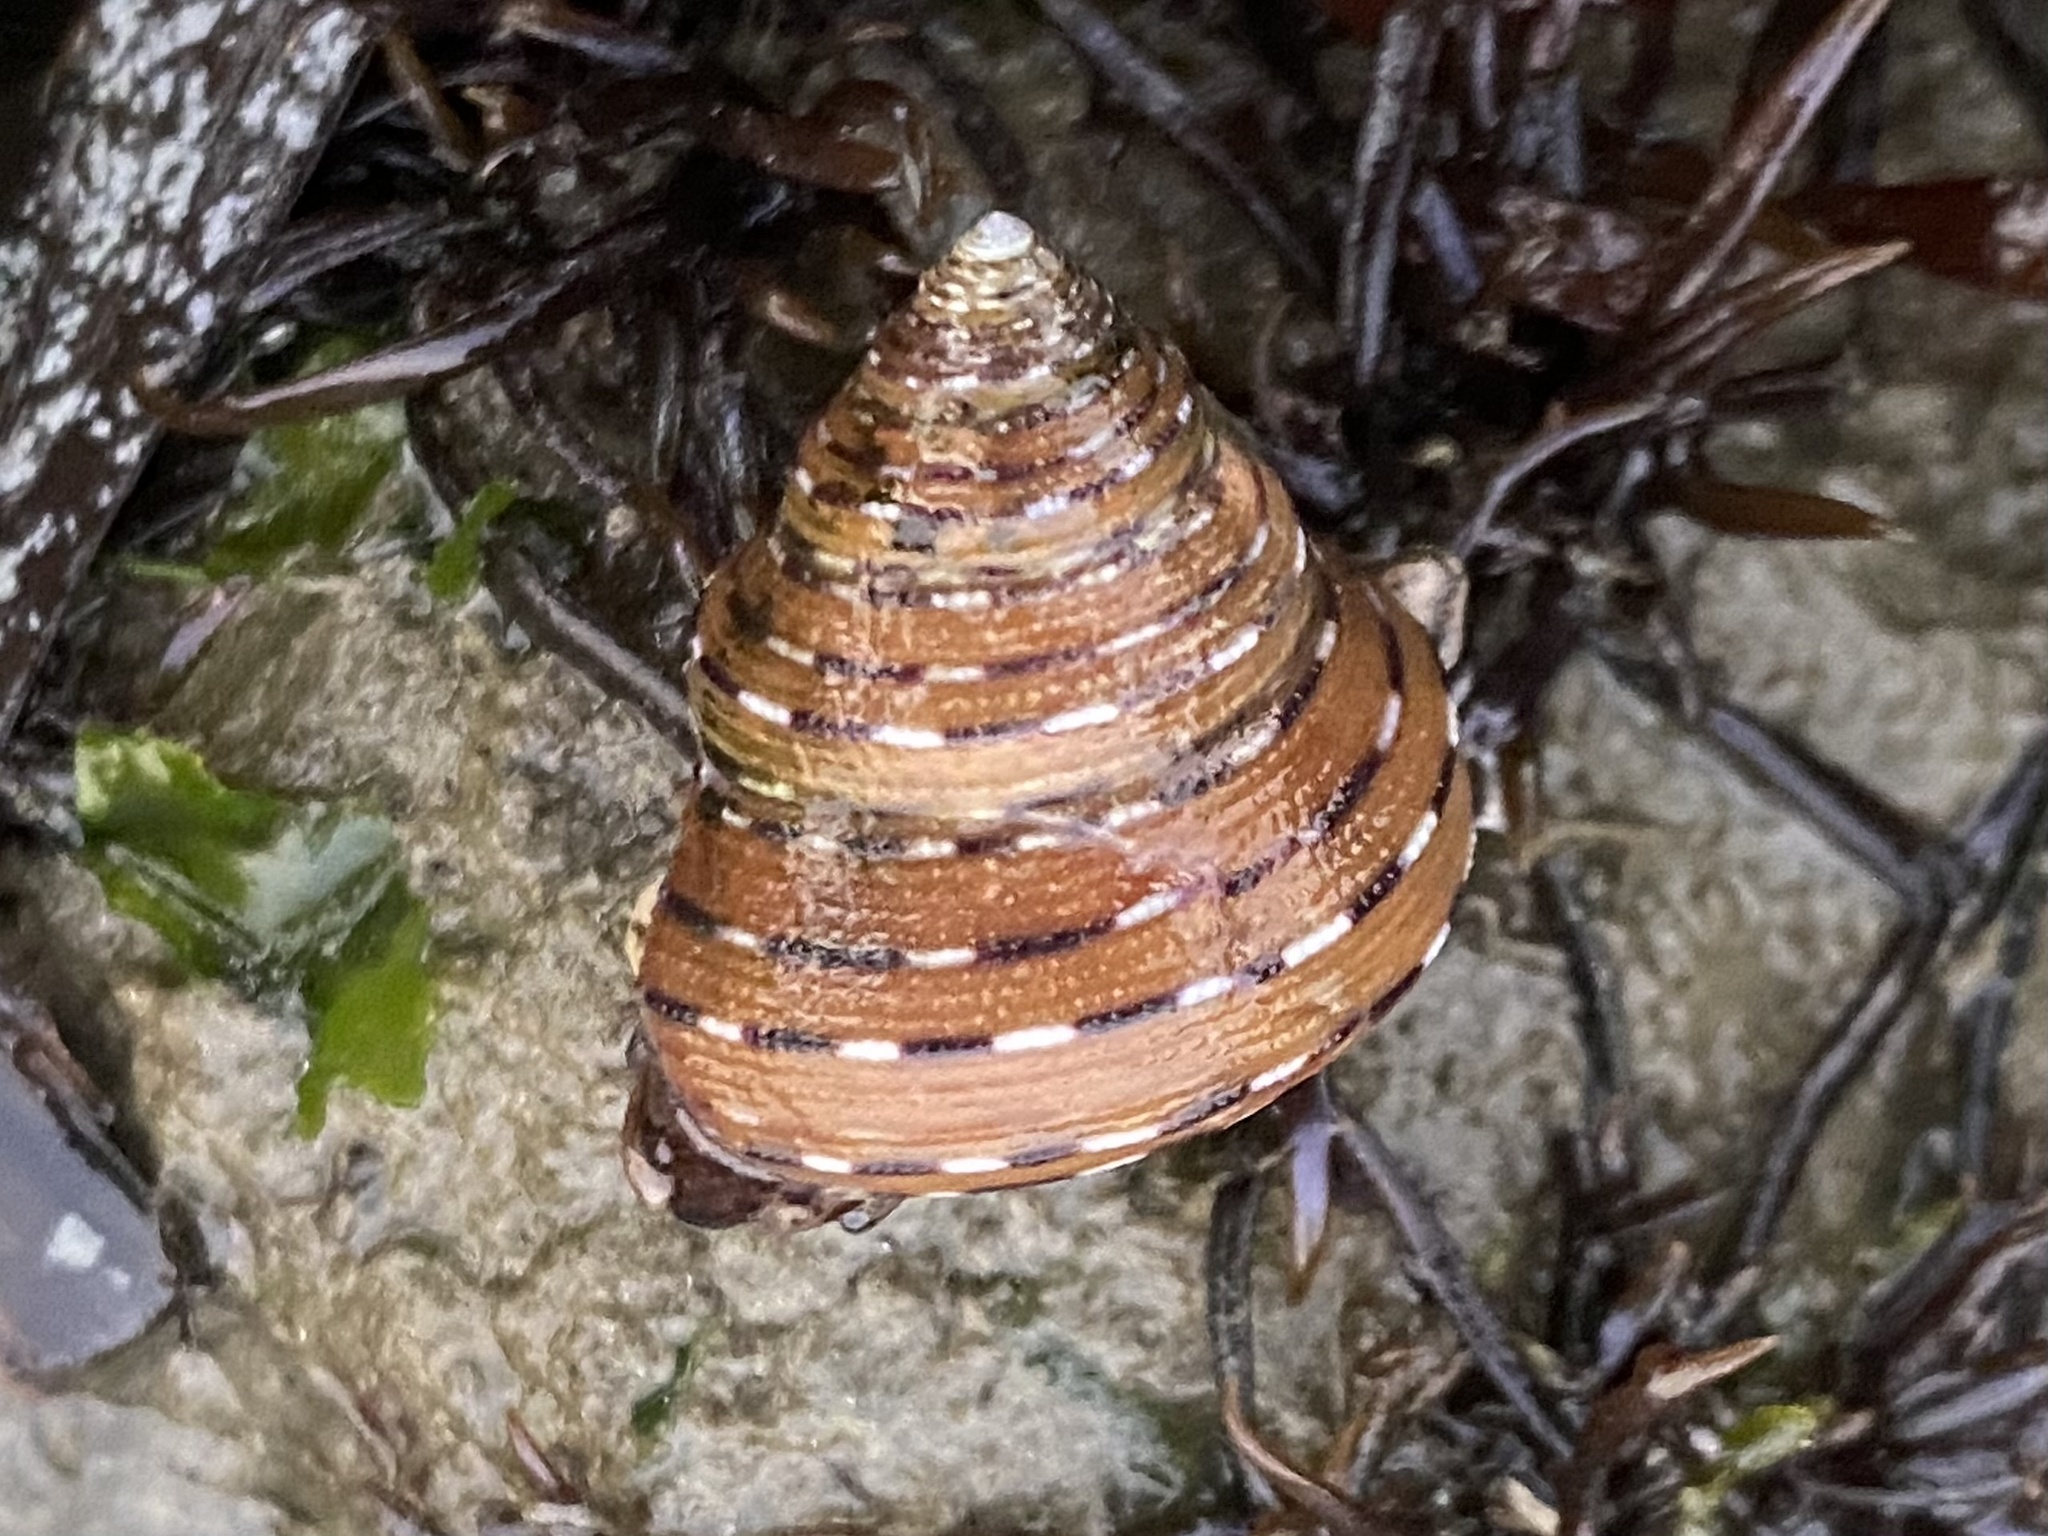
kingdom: Animalia
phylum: Mollusca
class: Gastropoda
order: Trochida
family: Calliostomatidae
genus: Calliostoma
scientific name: Calliostoma tricolor
